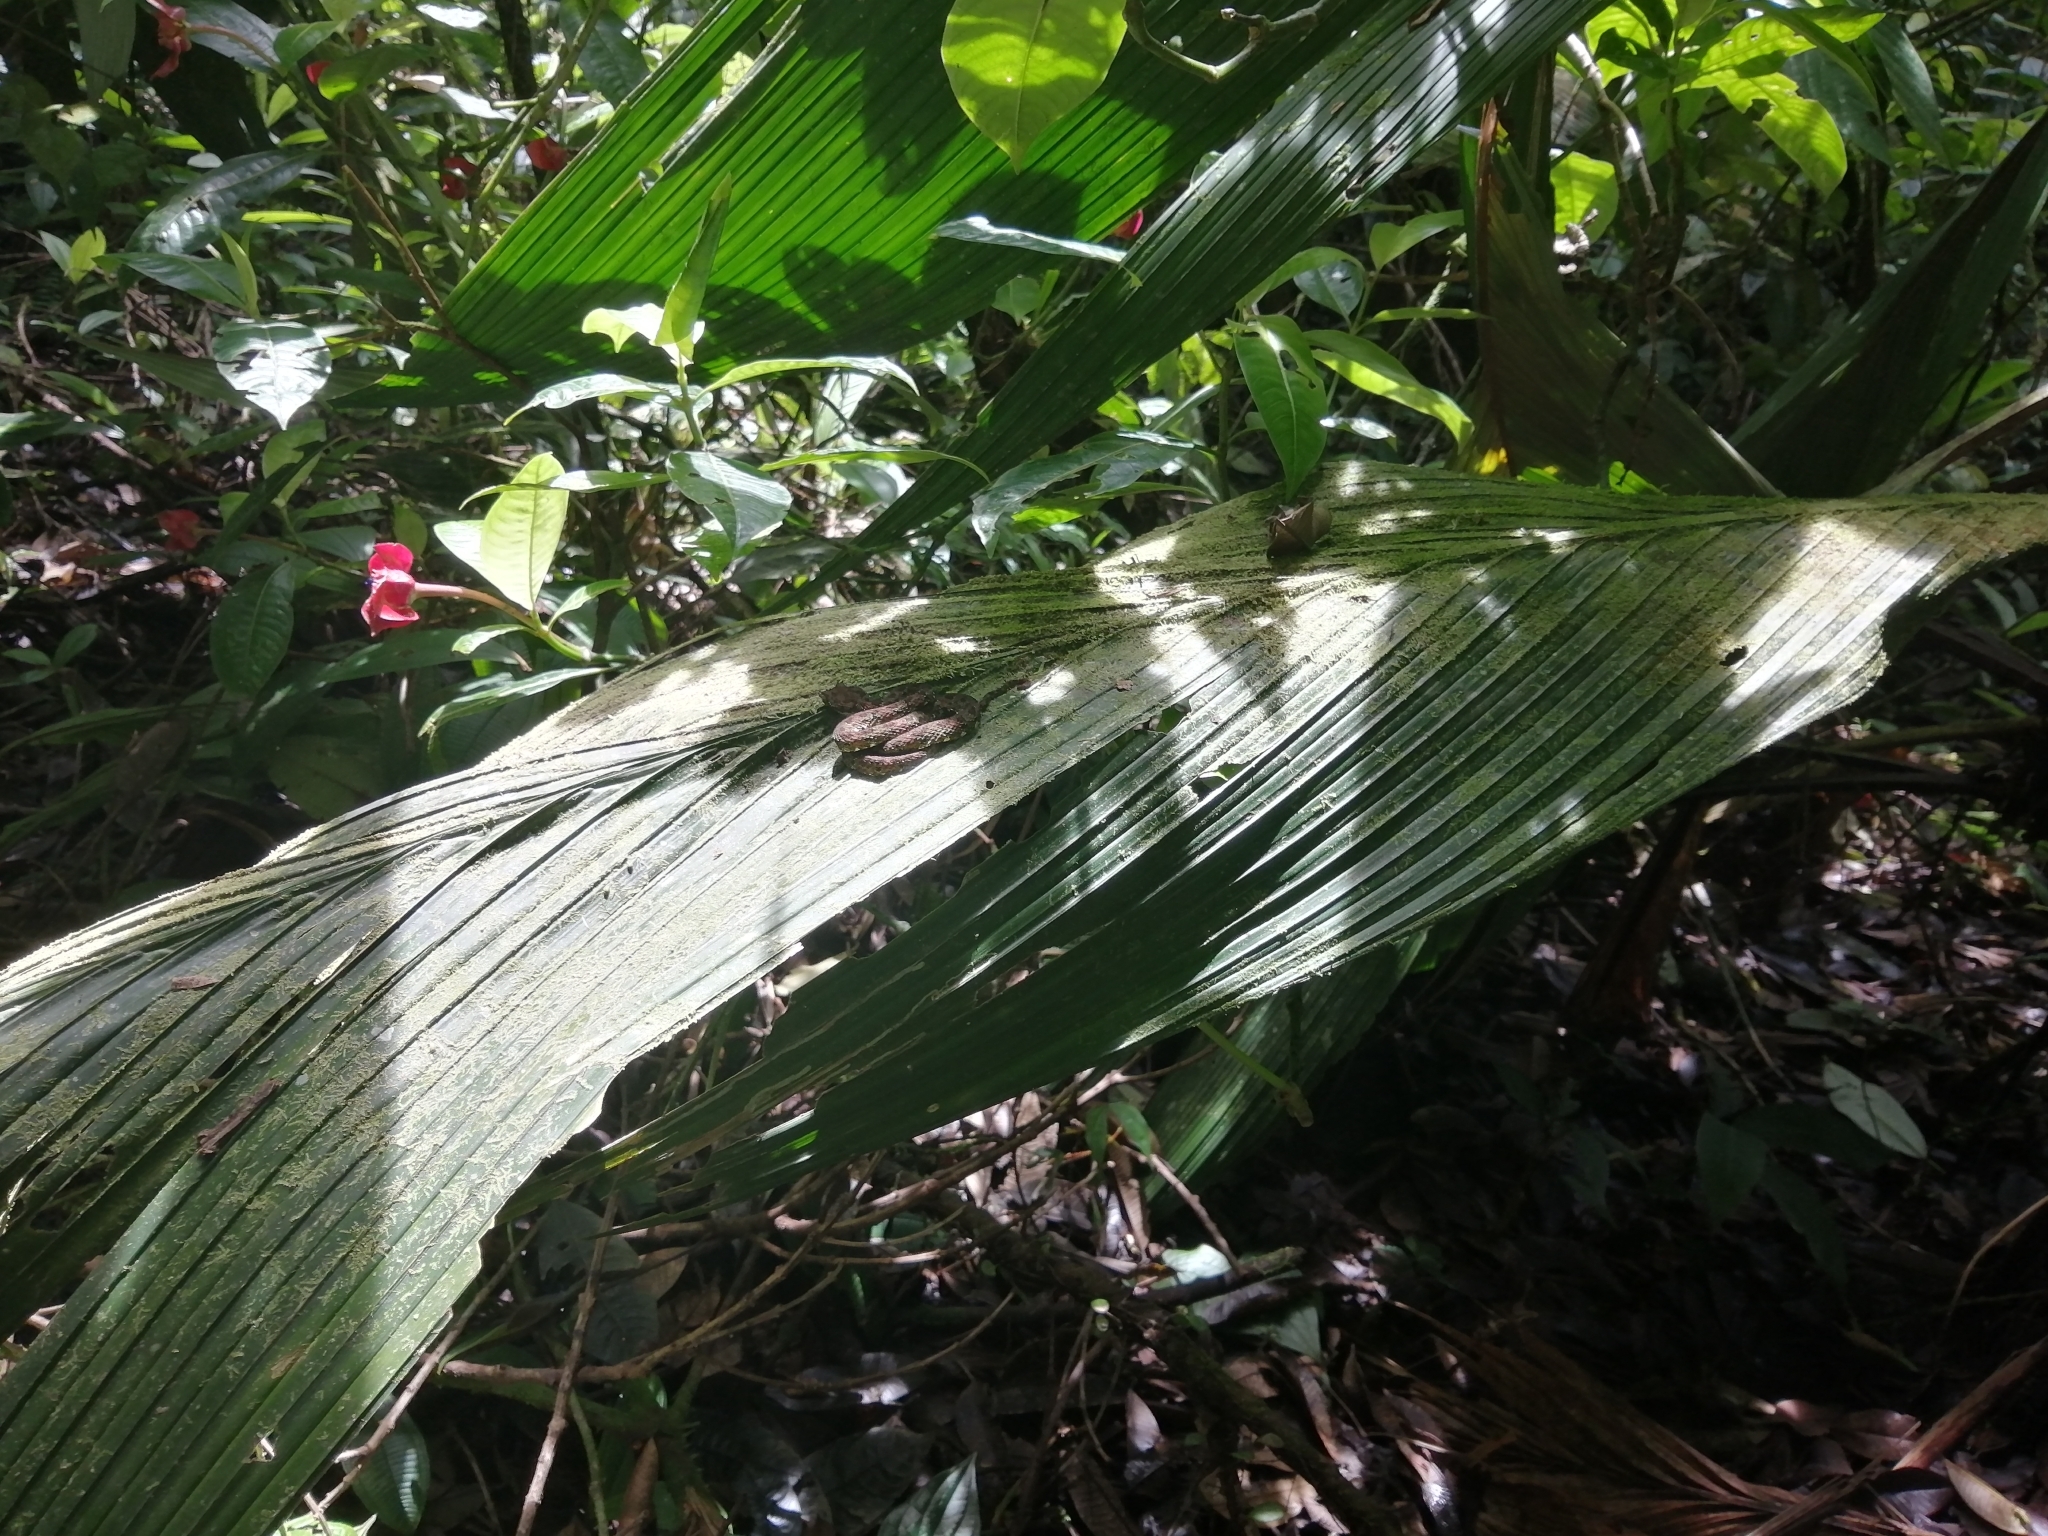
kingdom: Animalia
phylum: Chordata
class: Squamata
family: Viperidae
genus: Bothriechis
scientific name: Bothriechis schlegelii
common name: Eyelash viper
